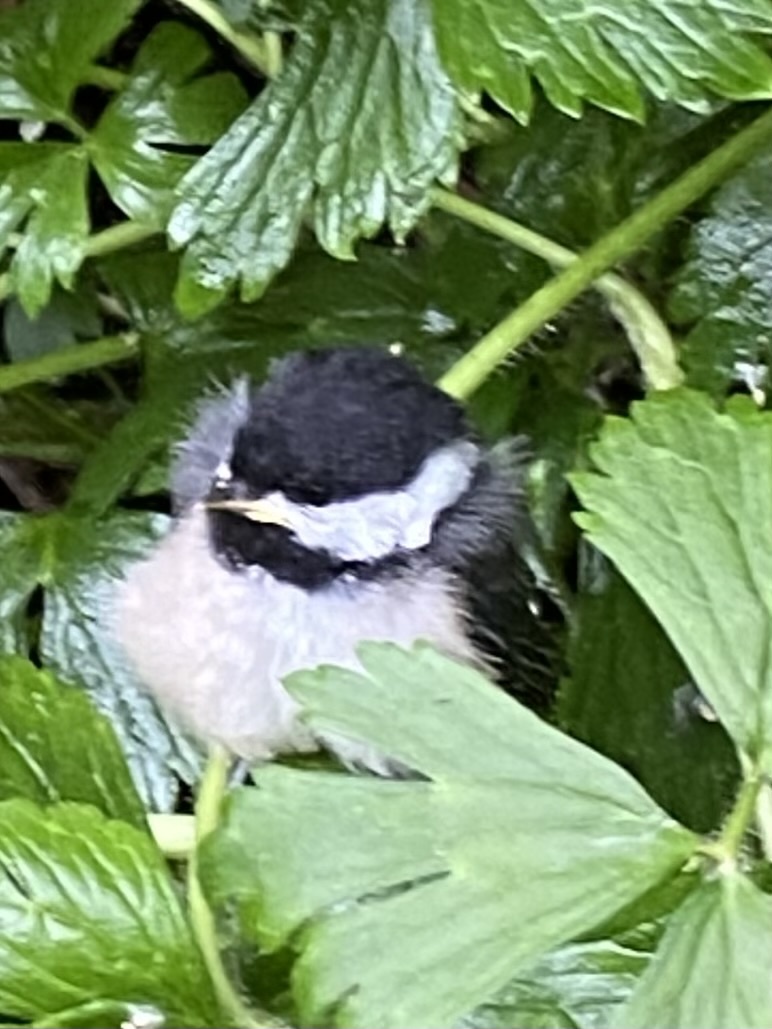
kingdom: Animalia
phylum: Chordata
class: Aves
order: Passeriformes
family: Paridae
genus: Poecile
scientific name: Poecile atricapillus
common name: Black-capped chickadee
